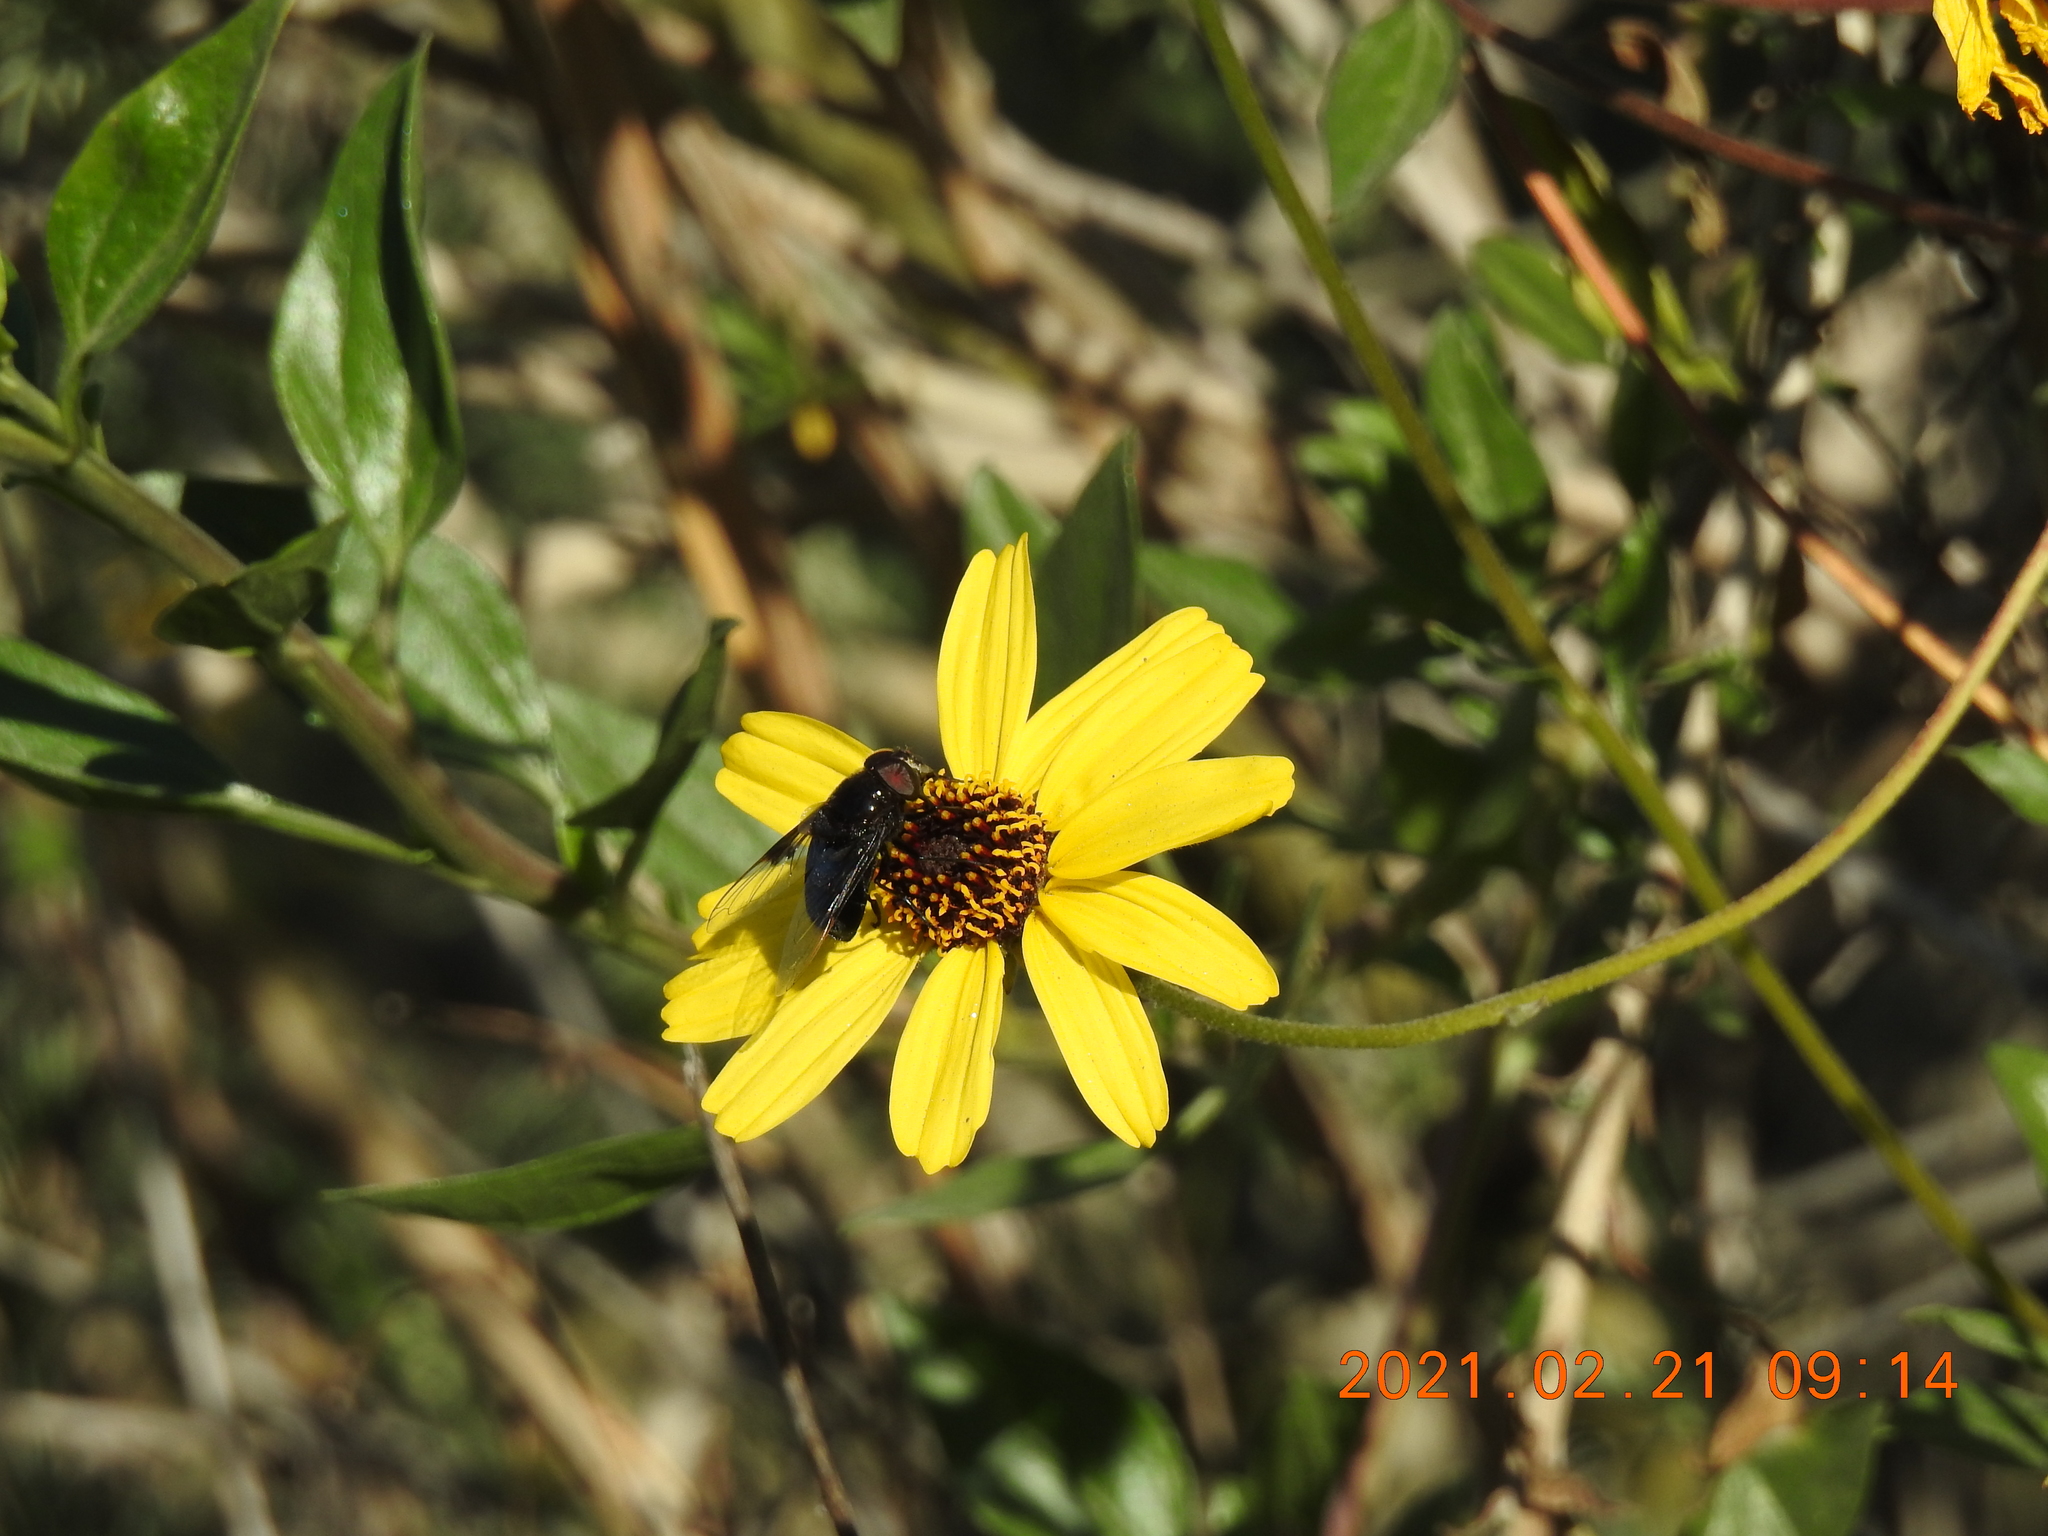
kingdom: Animalia
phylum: Arthropoda
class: Insecta
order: Diptera
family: Syrphidae
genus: Copestylum
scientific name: Copestylum
